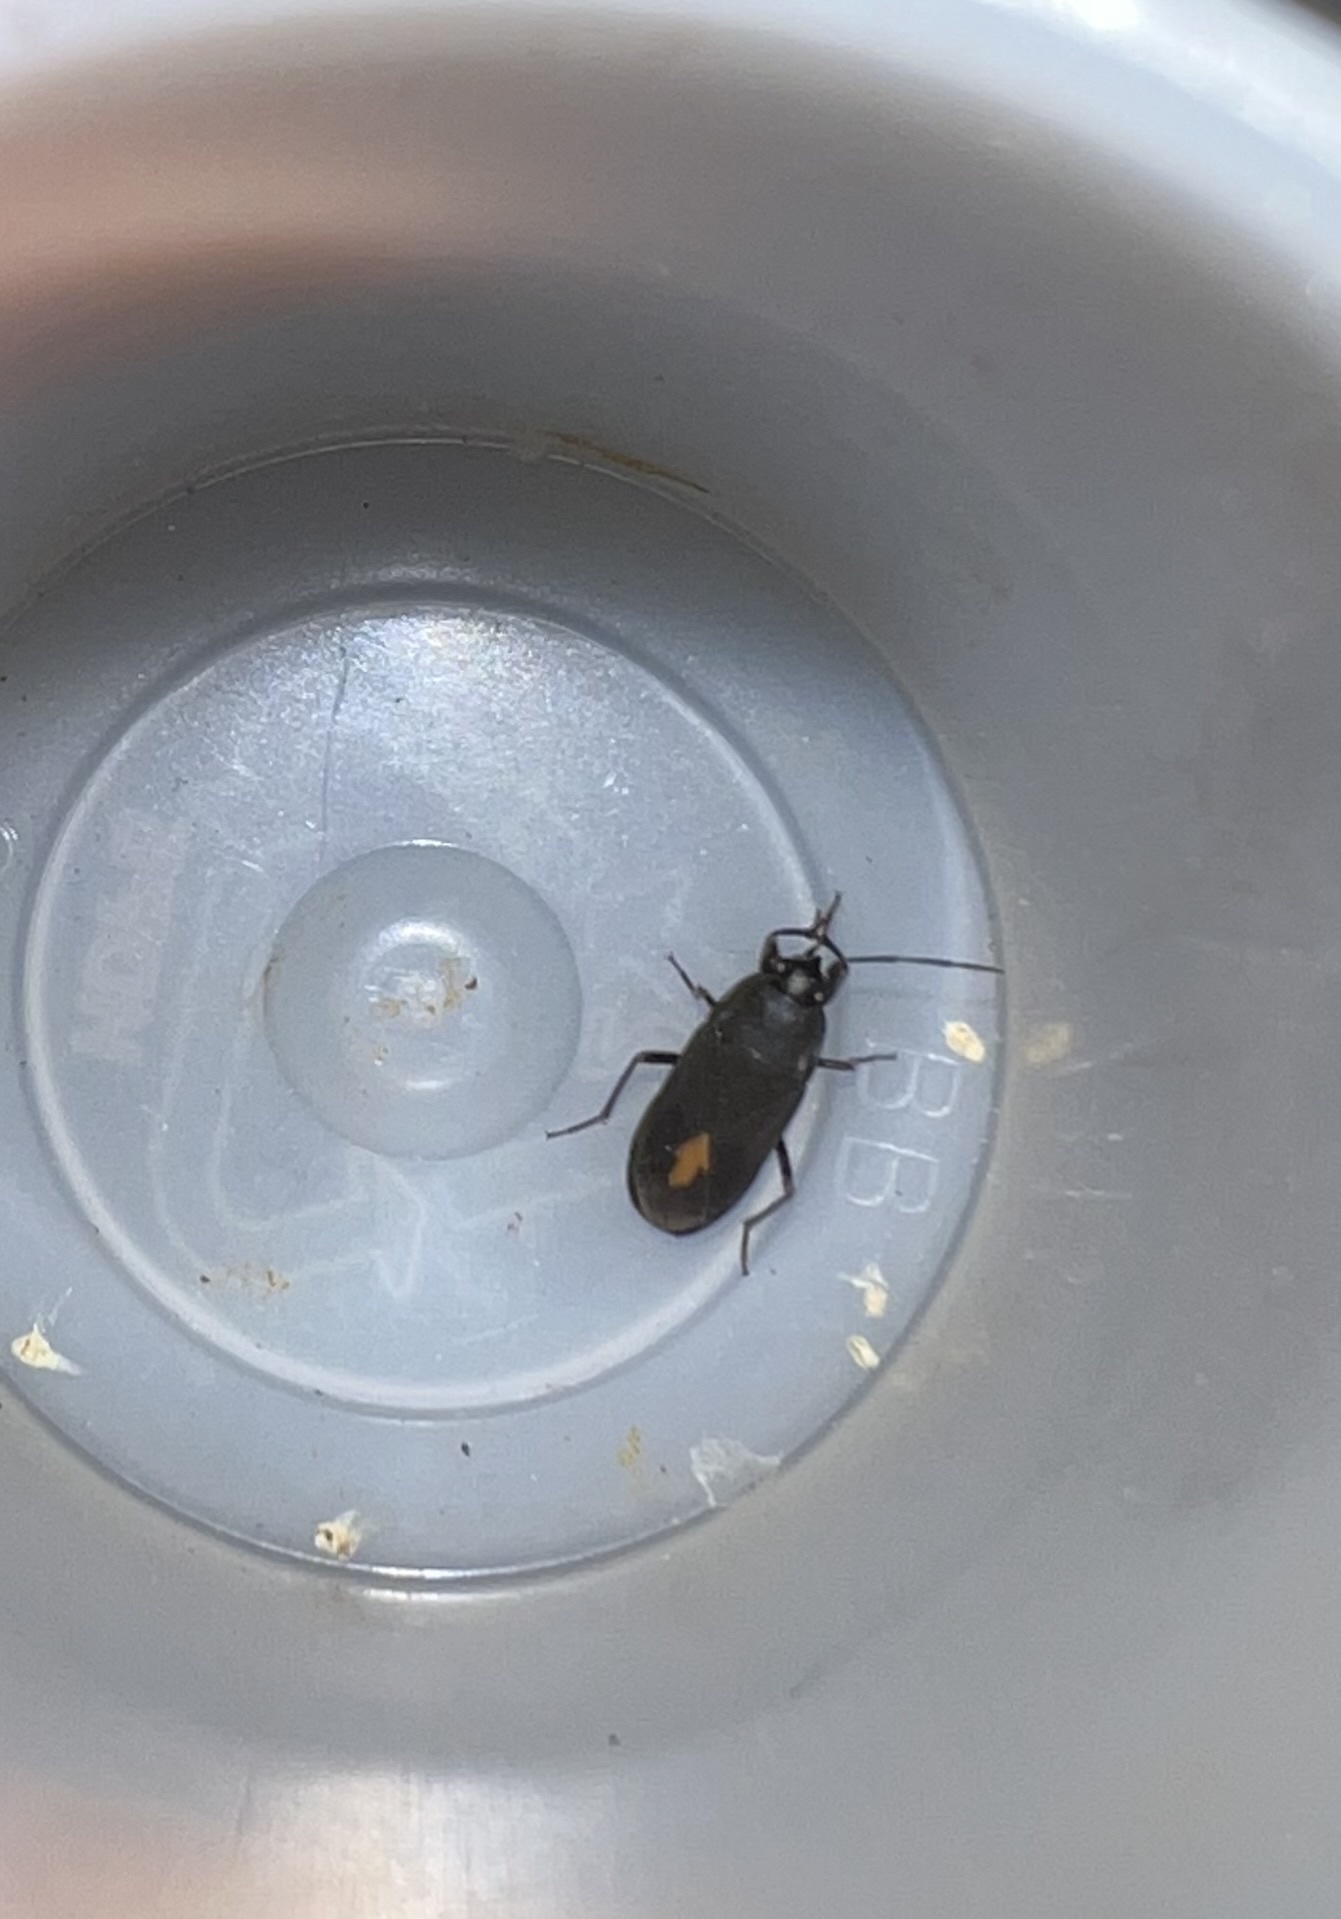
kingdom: Animalia
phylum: Arthropoda
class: Insecta
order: Hemiptera
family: Rhyparochromidae
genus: Aphanus
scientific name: Aphanus rolandri
